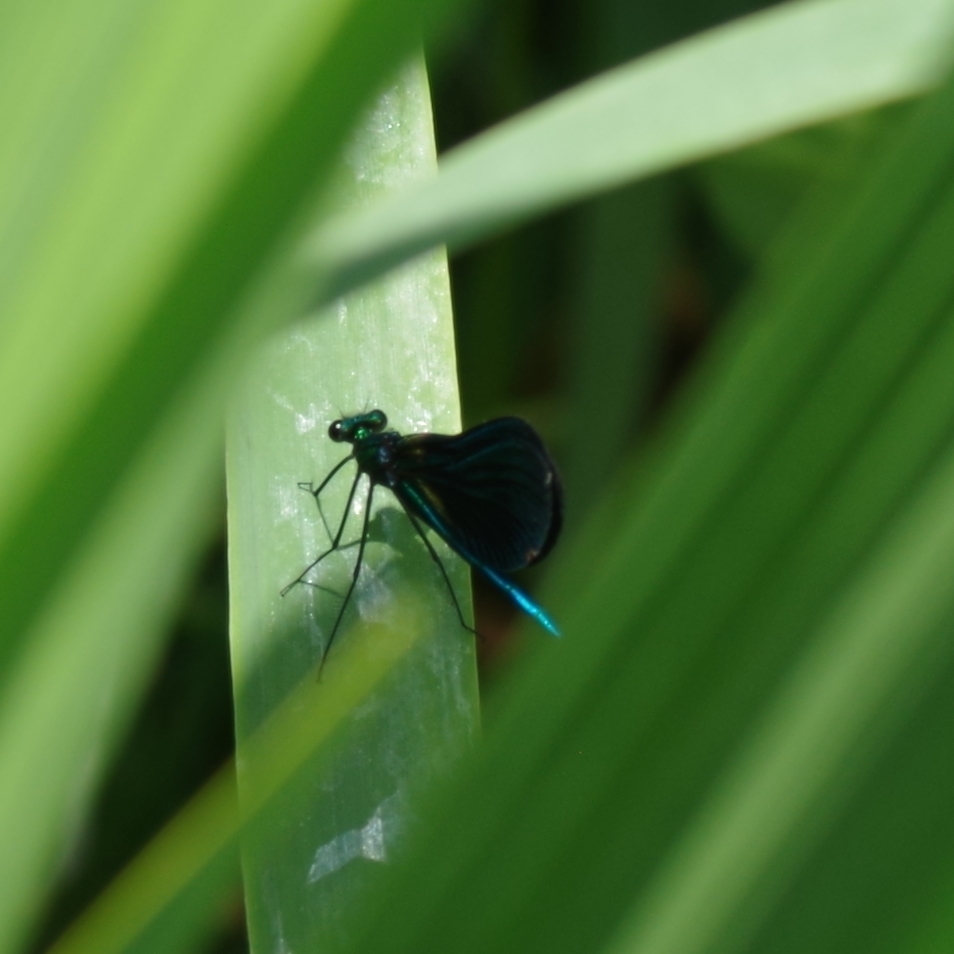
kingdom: Animalia
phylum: Arthropoda
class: Insecta
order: Odonata
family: Calopterygidae
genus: Calopteryx
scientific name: Calopteryx virgo
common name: Beautiful demoiselle
